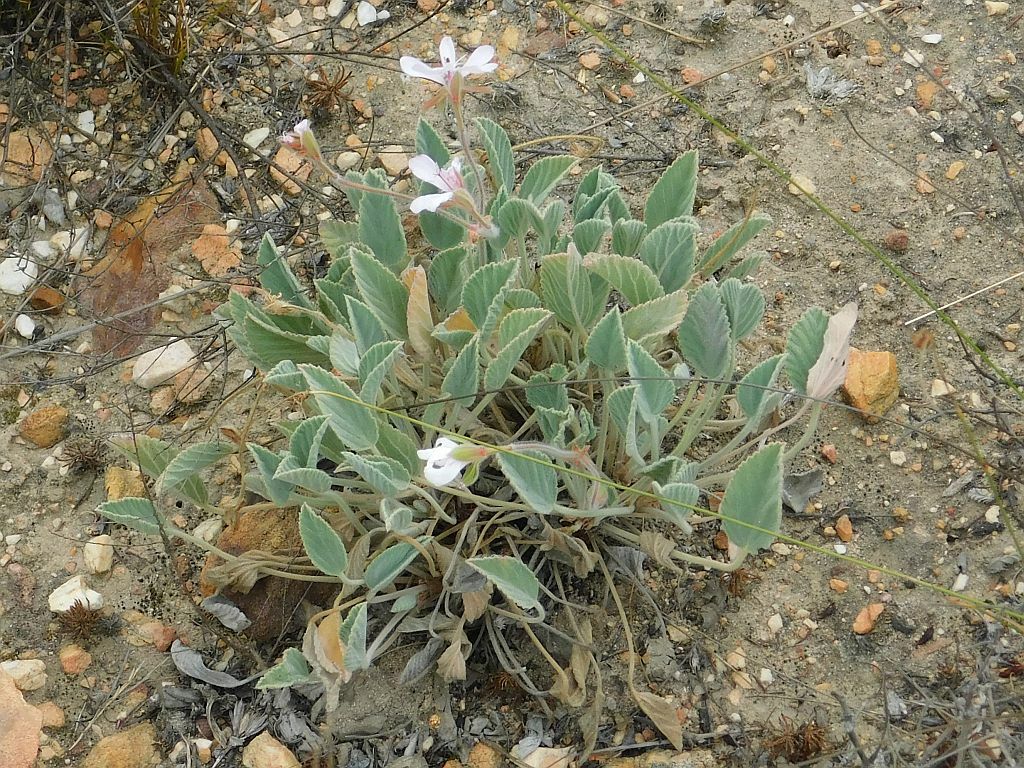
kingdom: Plantae
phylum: Tracheophyta
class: Magnoliopsida
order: Geraniales
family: Geraniaceae
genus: Pelargonium
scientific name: Pelargonium ovale
